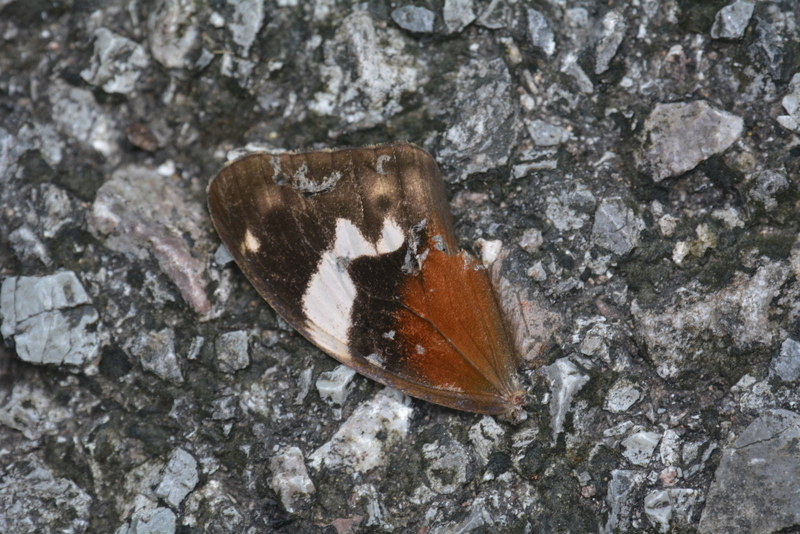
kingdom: Animalia
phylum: Arthropoda
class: Insecta
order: Lepidoptera
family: Nymphalidae
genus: Cupha
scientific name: Cupha erymanthis
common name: Rustic
